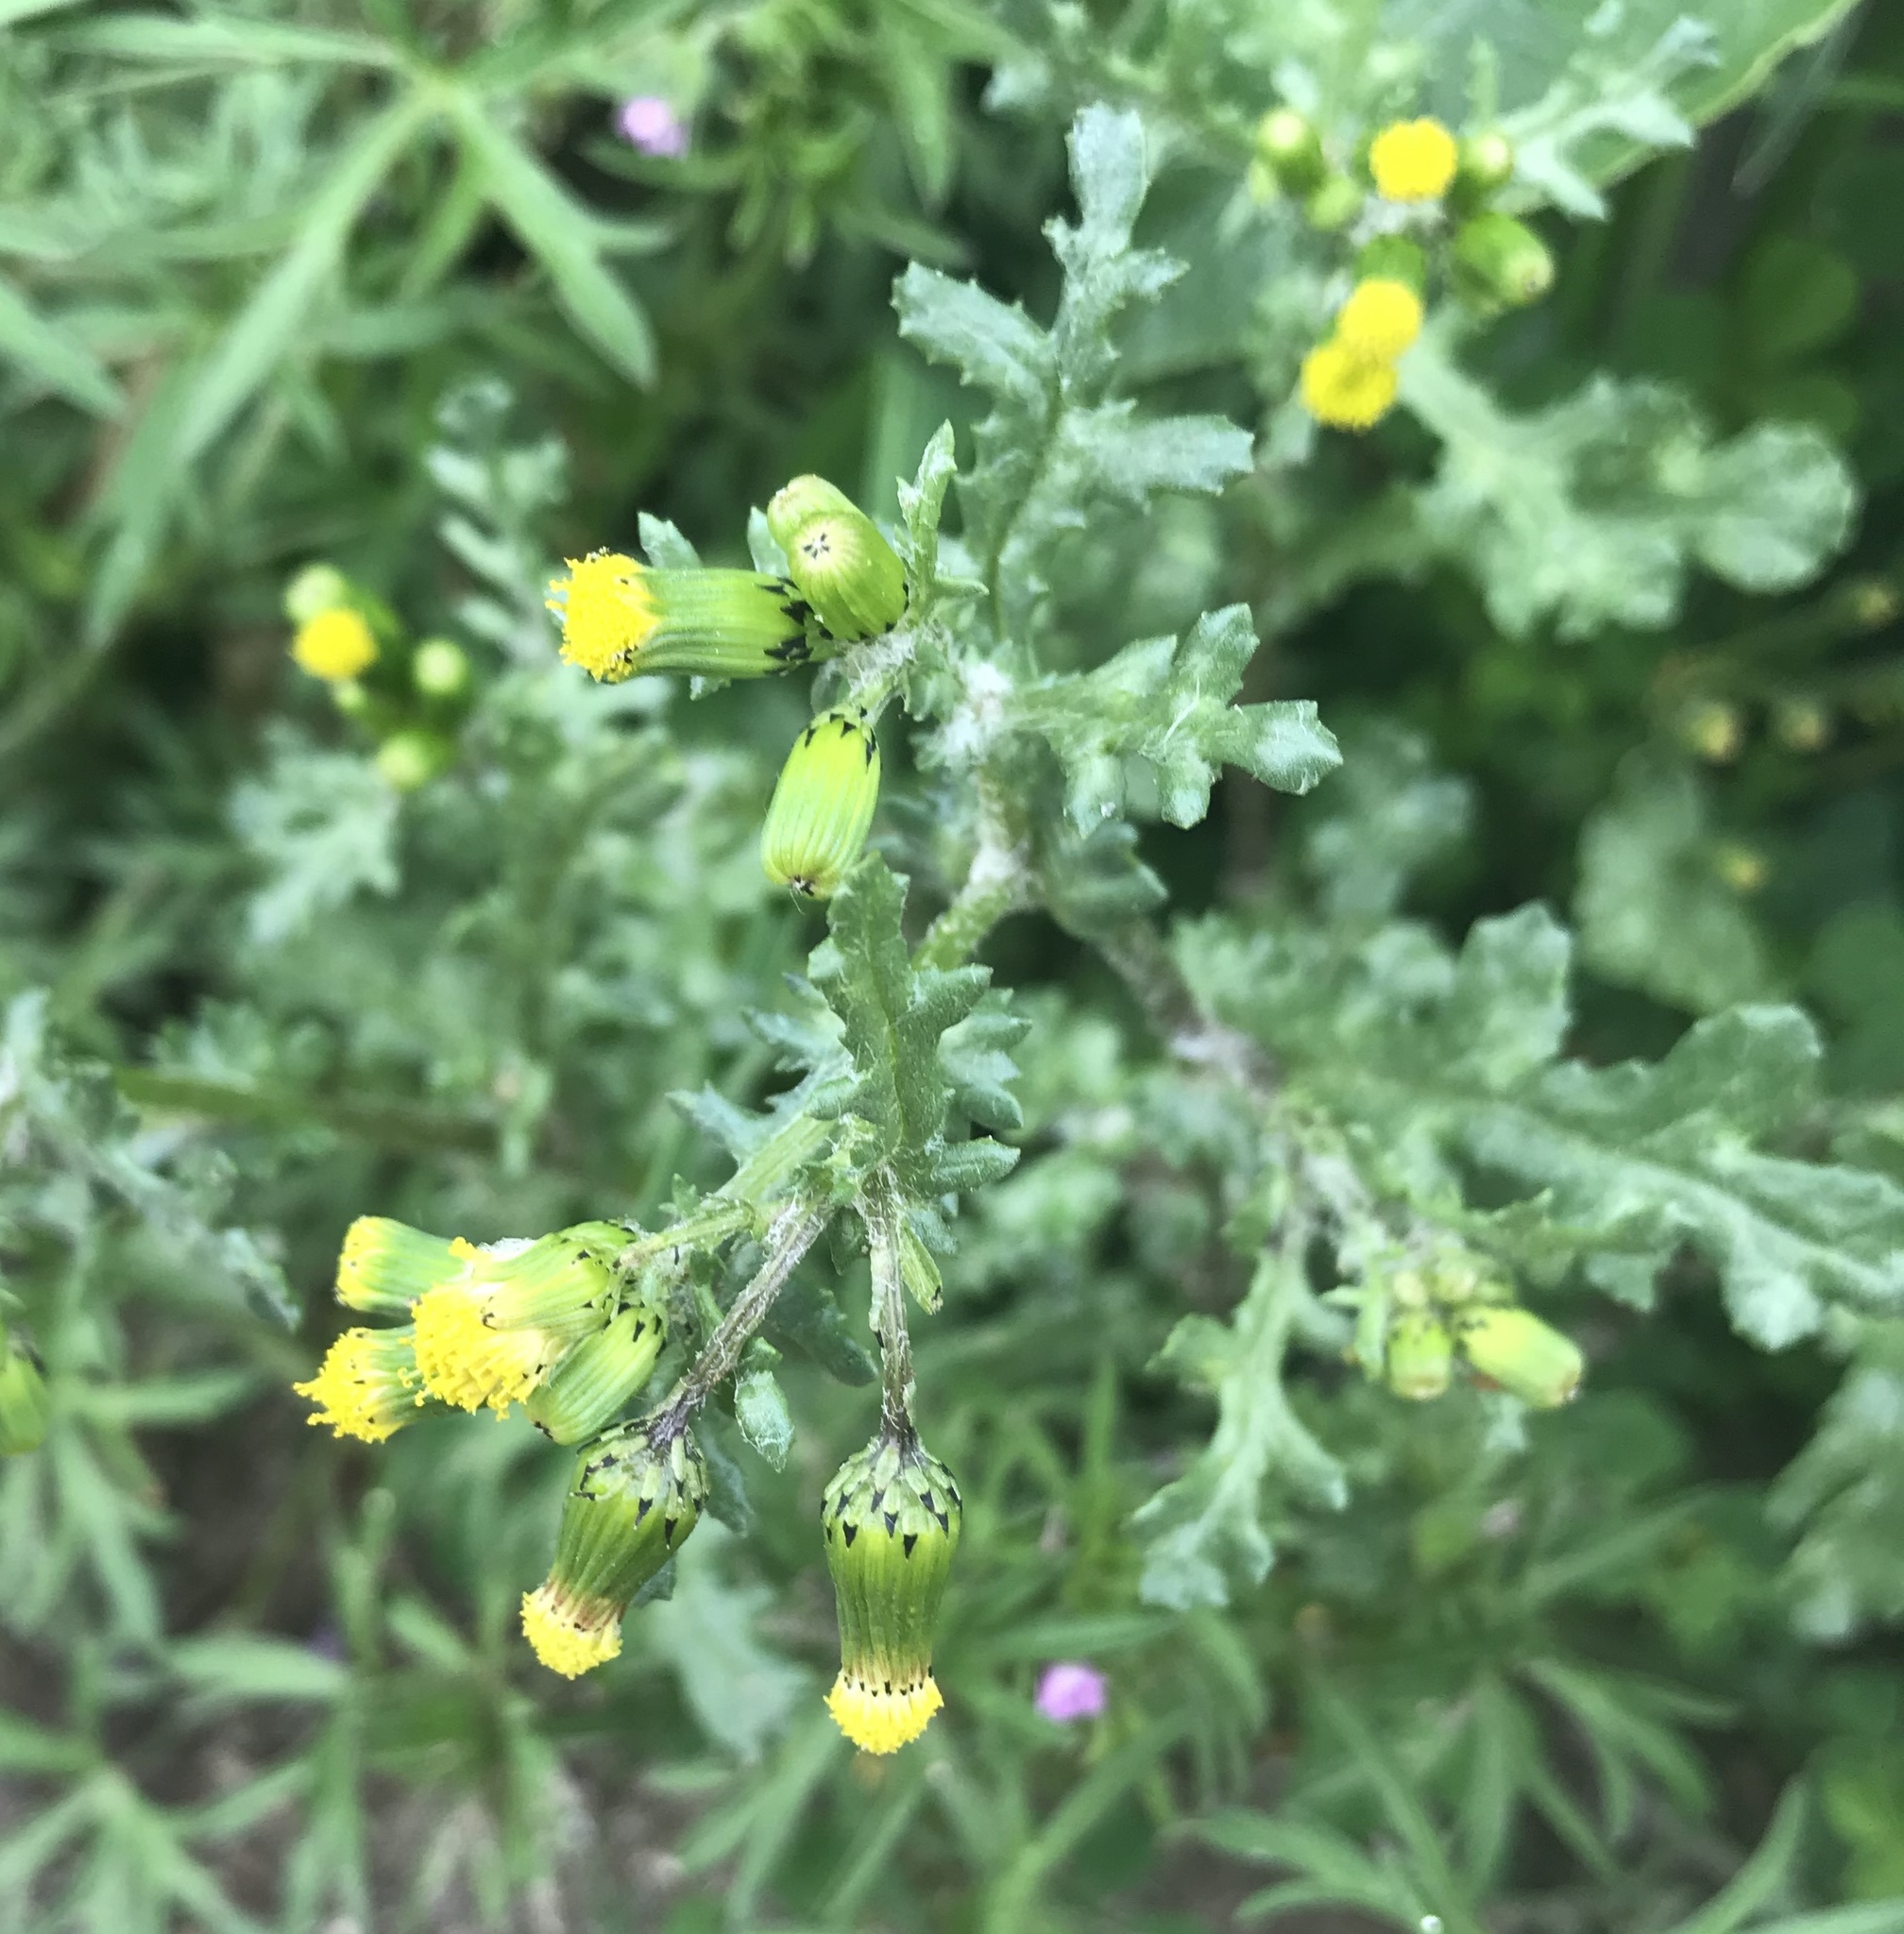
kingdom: Plantae
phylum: Tracheophyta
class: Magnoliopsida
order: Asterales
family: Asteraceae
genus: Senecio
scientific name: Senecio vulgaris
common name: Old-man-in-the-spring
